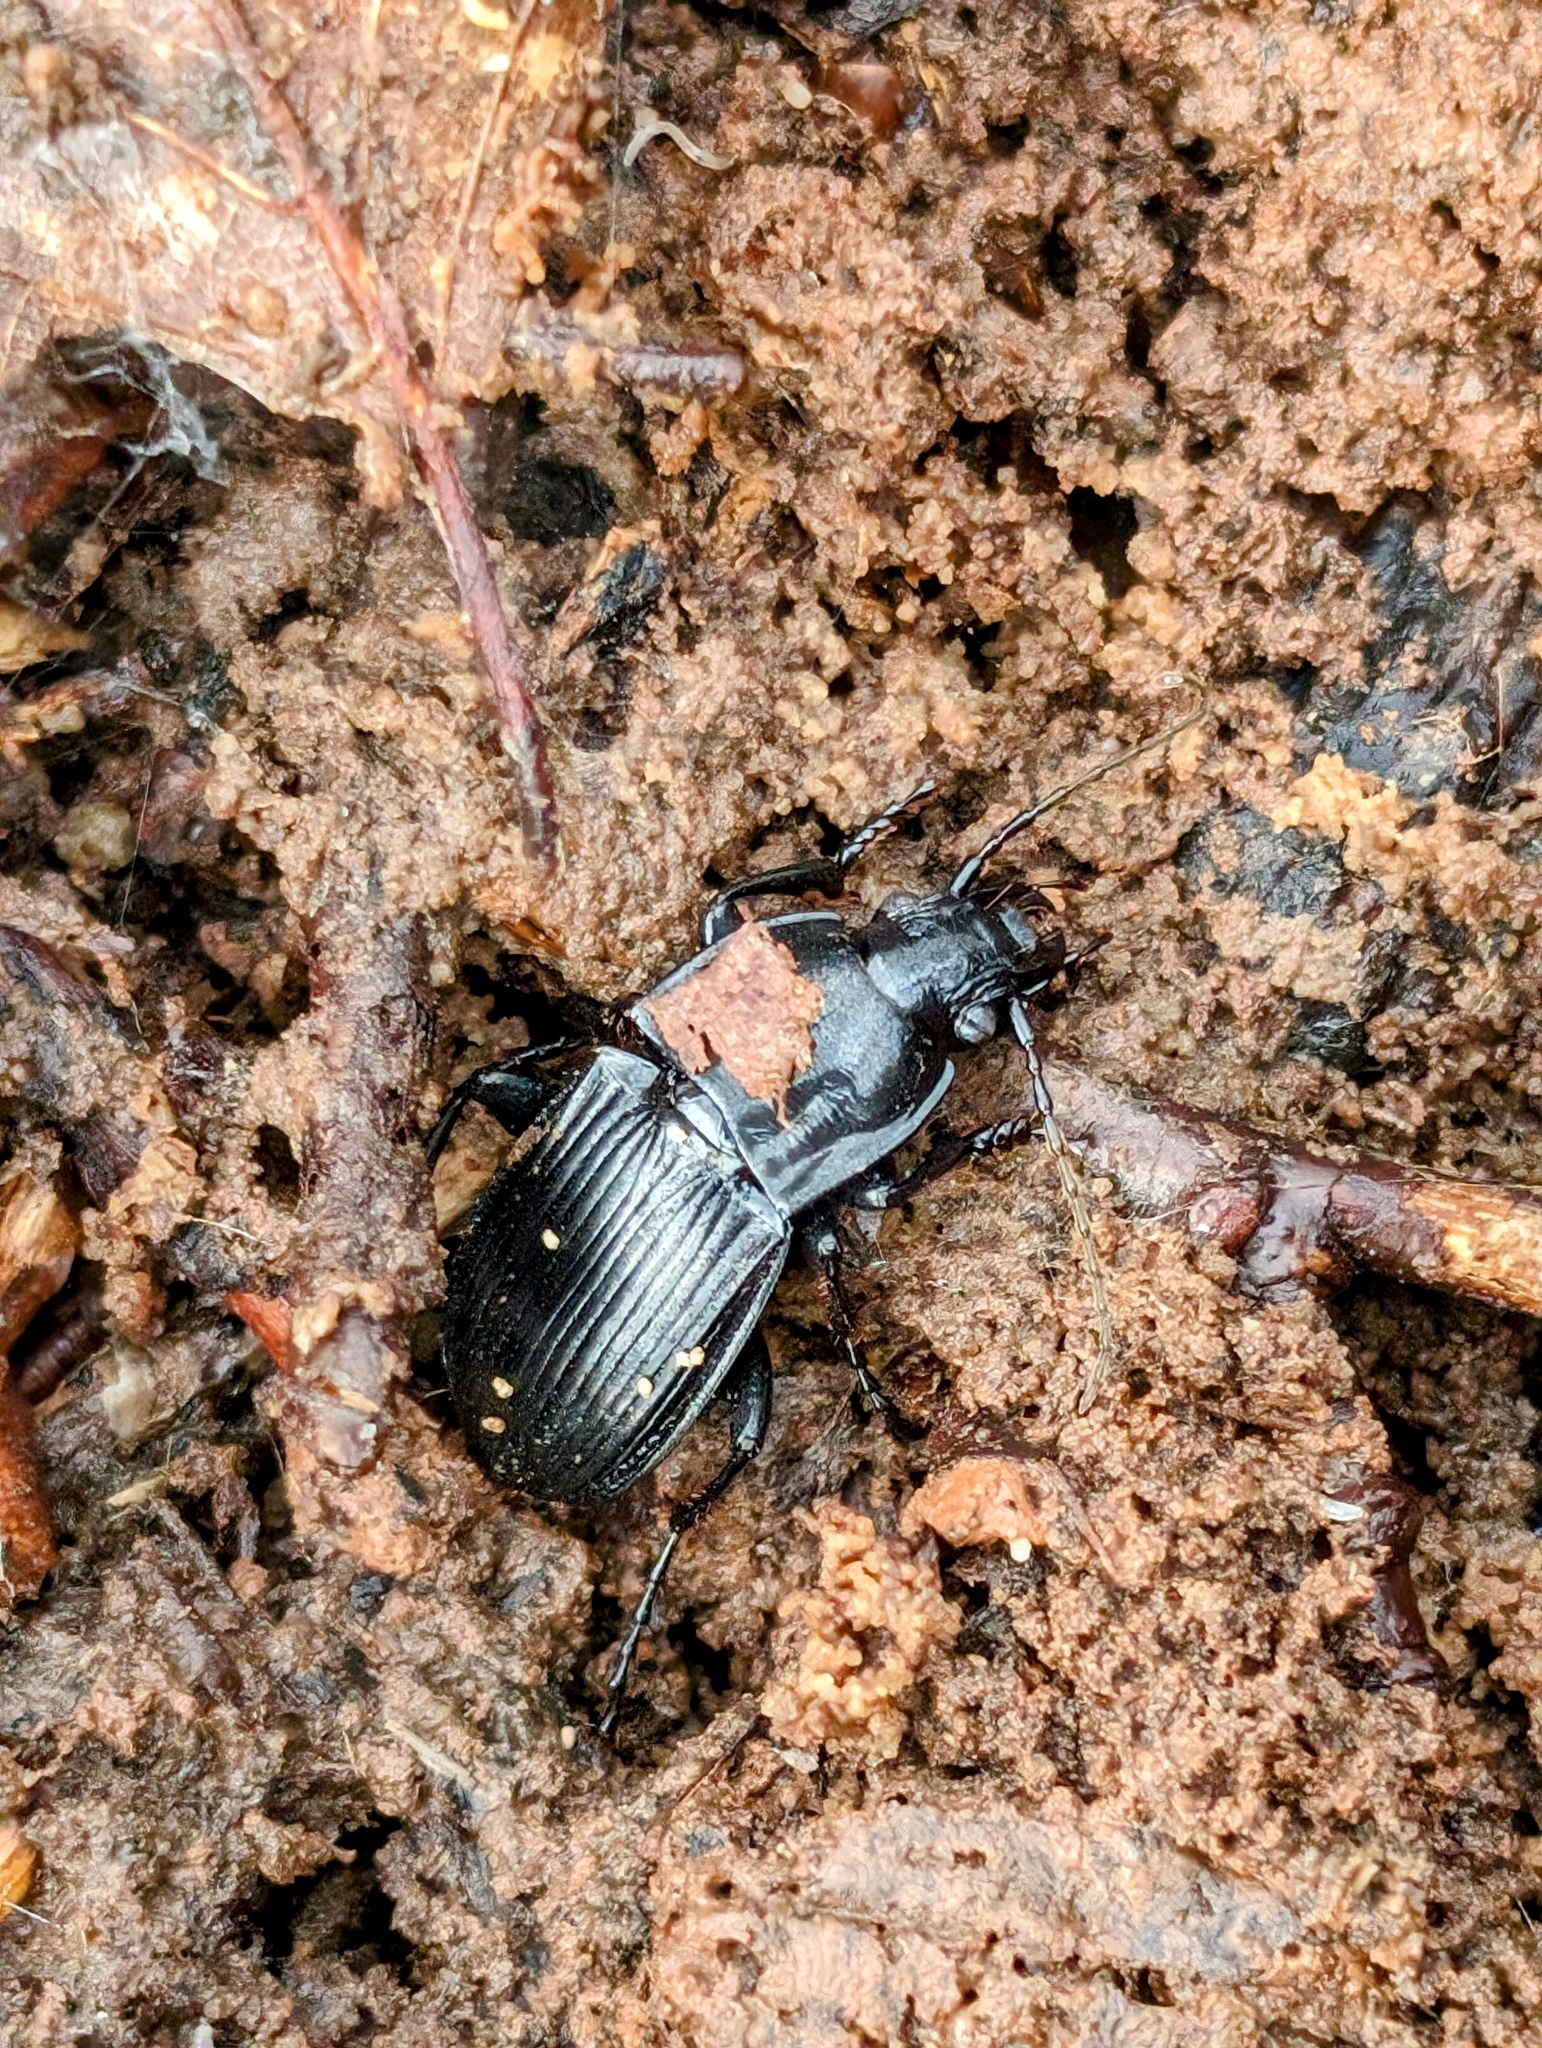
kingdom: Animalia
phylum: Arthropoda
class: Insecta
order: Coleoptera
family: Carabidae
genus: Abax
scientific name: Abax parallelepipedus
